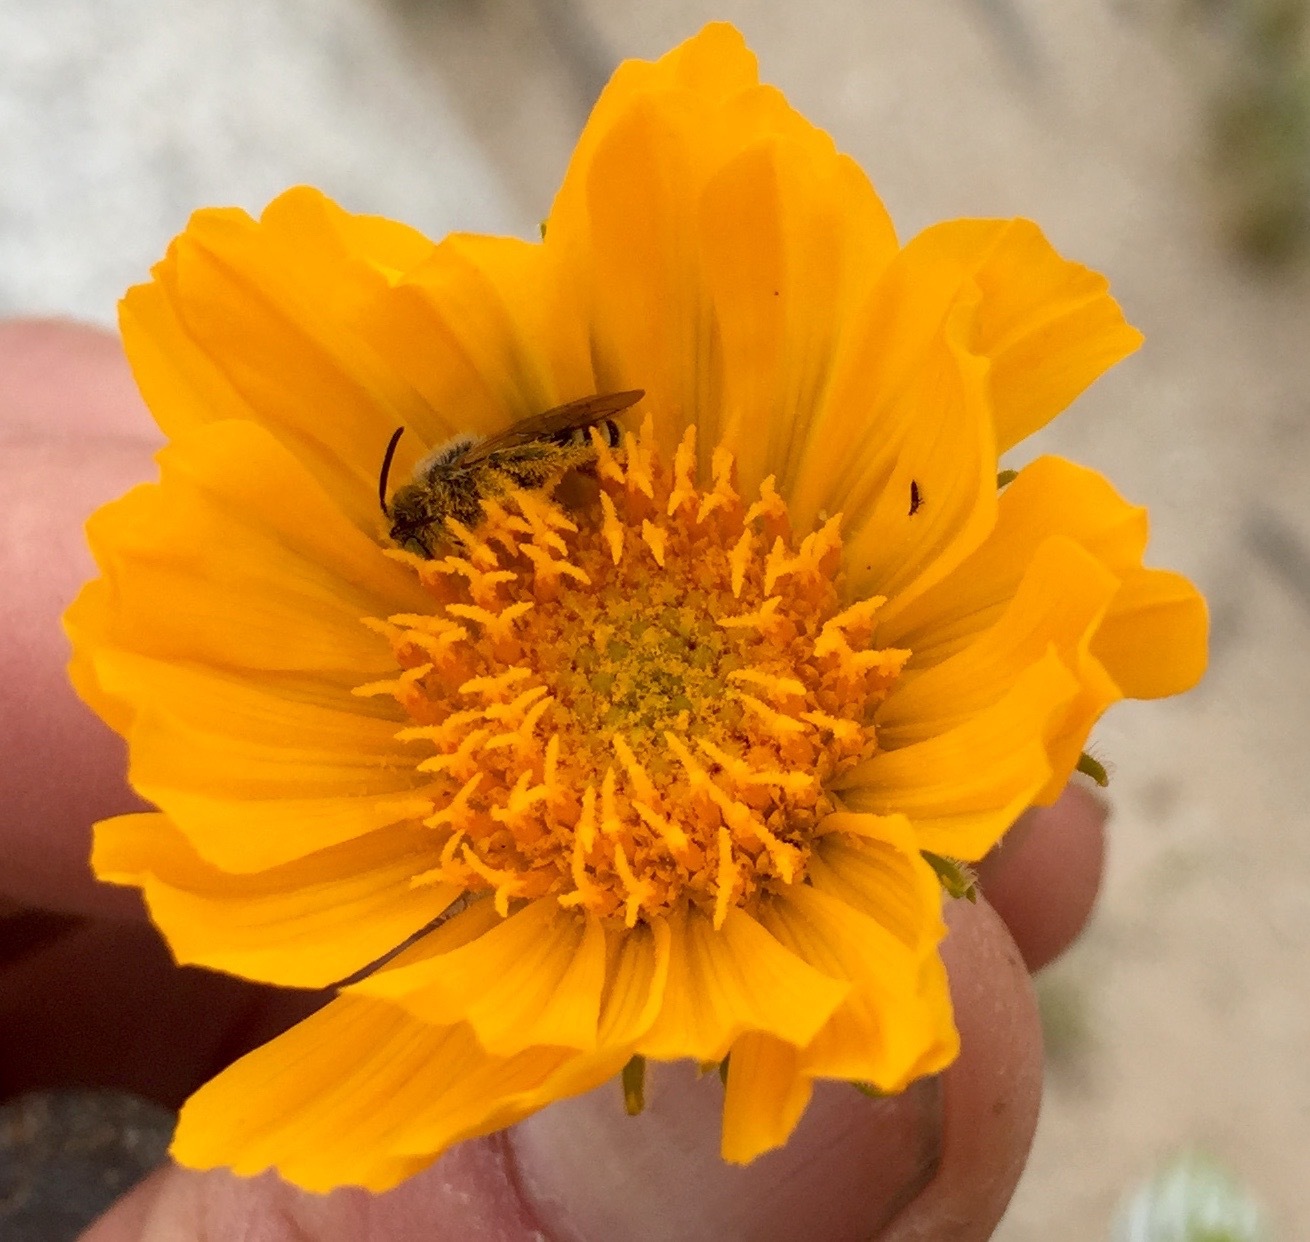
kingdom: Animalia
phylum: Arthropoda
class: Insecta
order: Hymenoptera
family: Melittidae
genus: Hesperapis
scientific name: Hesperapis
